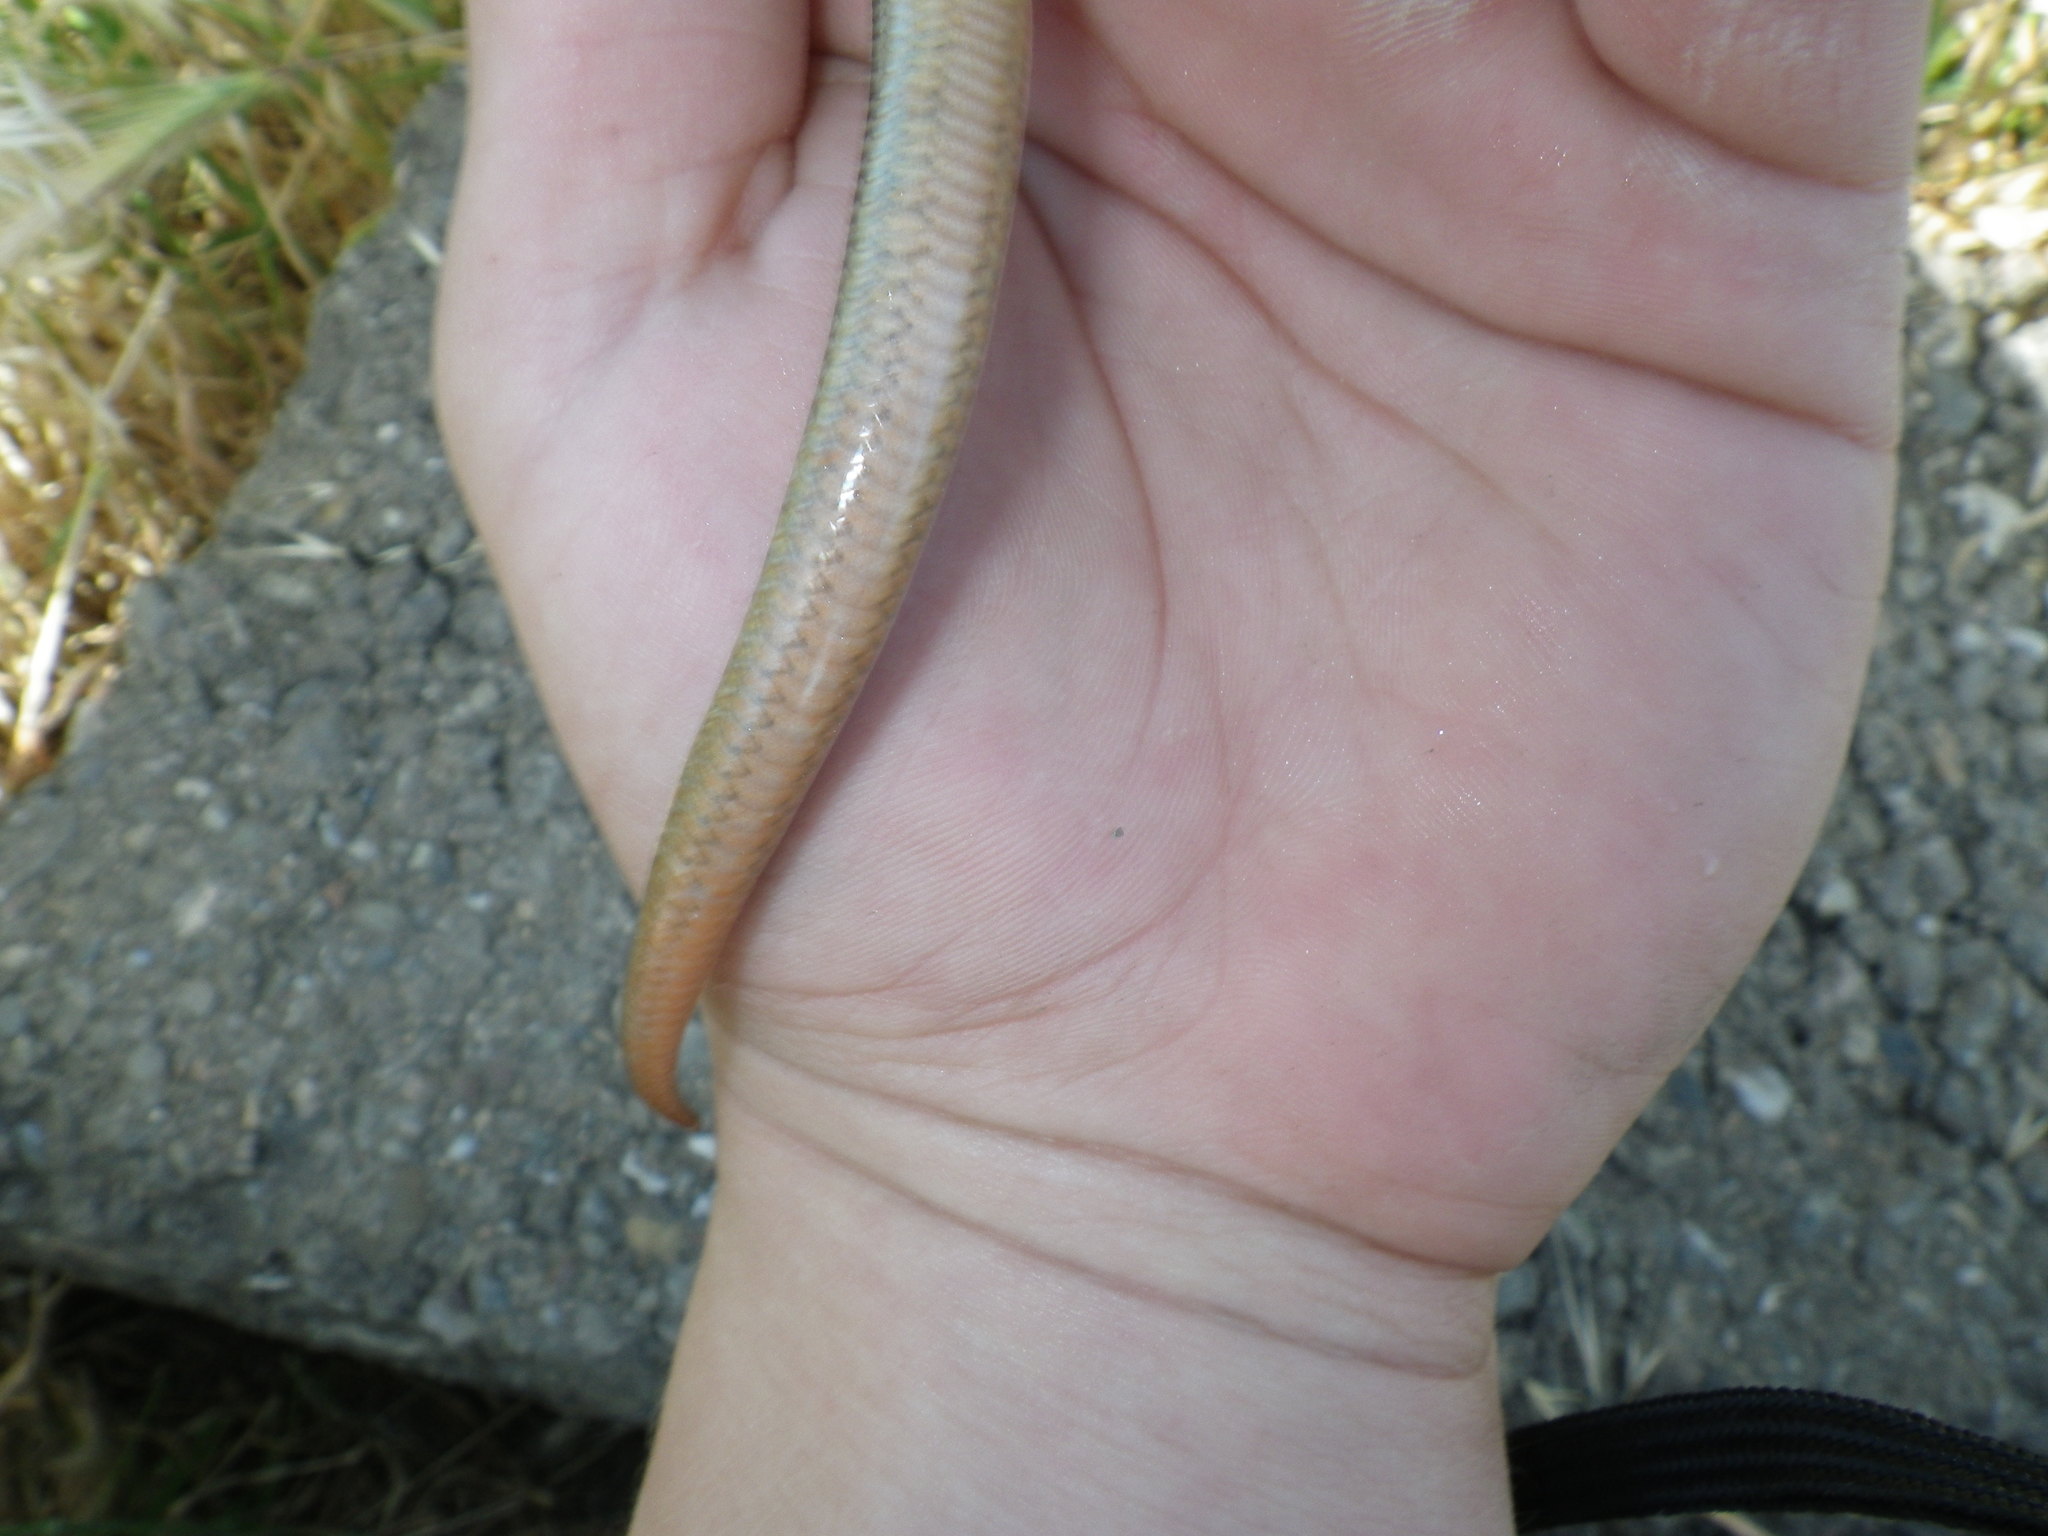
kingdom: Animalia
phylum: Chordata
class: Squamata
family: Scincidae
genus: Plestiodon
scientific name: Plestiodon gilberti
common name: Gilbert's skink
